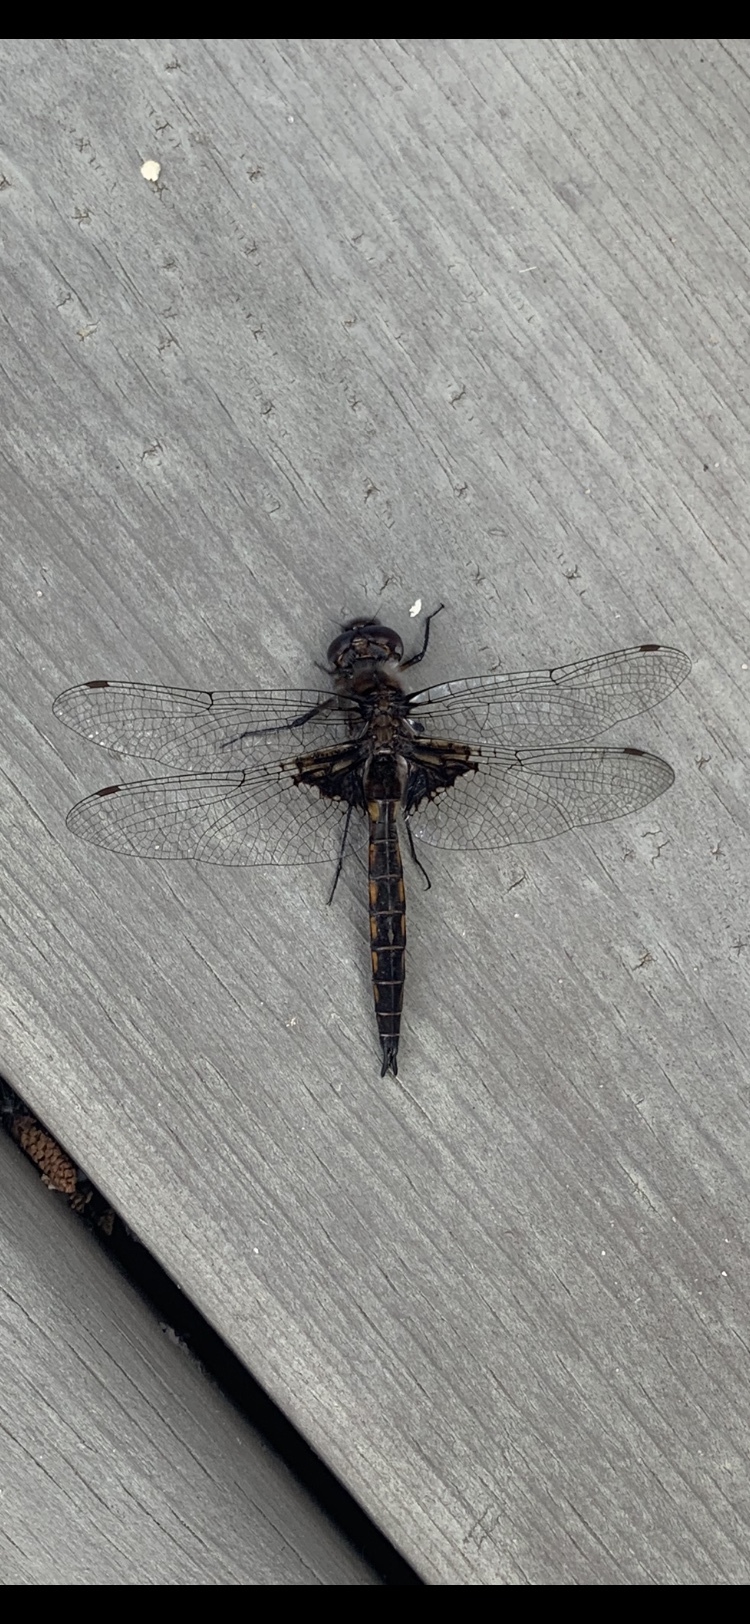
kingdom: Animalia
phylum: Arthropoda
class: Insecta
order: Odonata
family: Corduliidae
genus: Epitheca
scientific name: Epitheca cynosura
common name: Common baskettail
